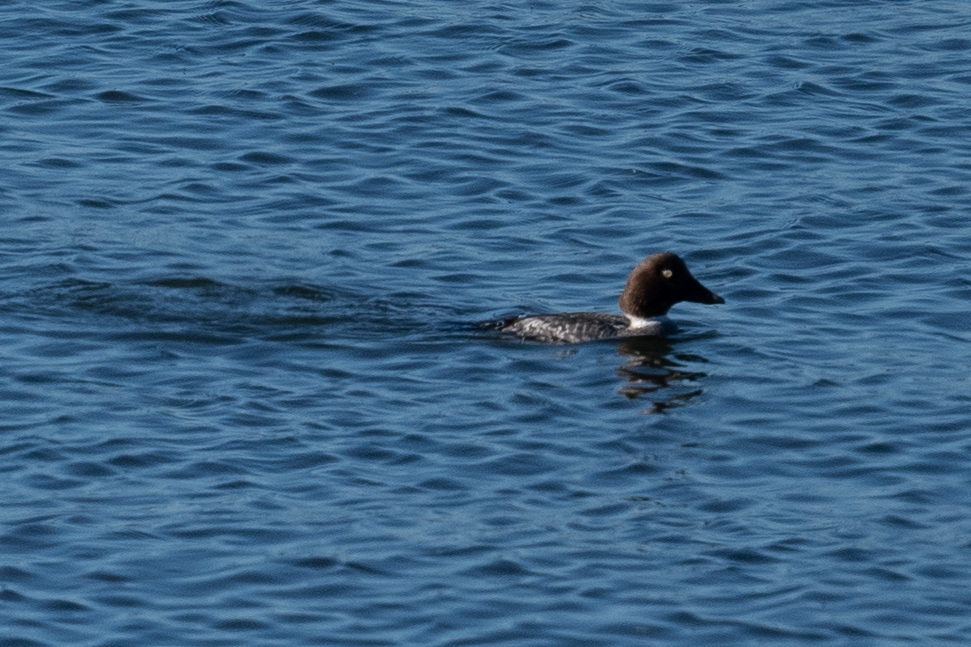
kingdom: Animalia
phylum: Chordata
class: Aves
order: Anseriformes
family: Anatidae
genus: Bucephala
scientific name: Bucephala clangula
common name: Common goldeneye
